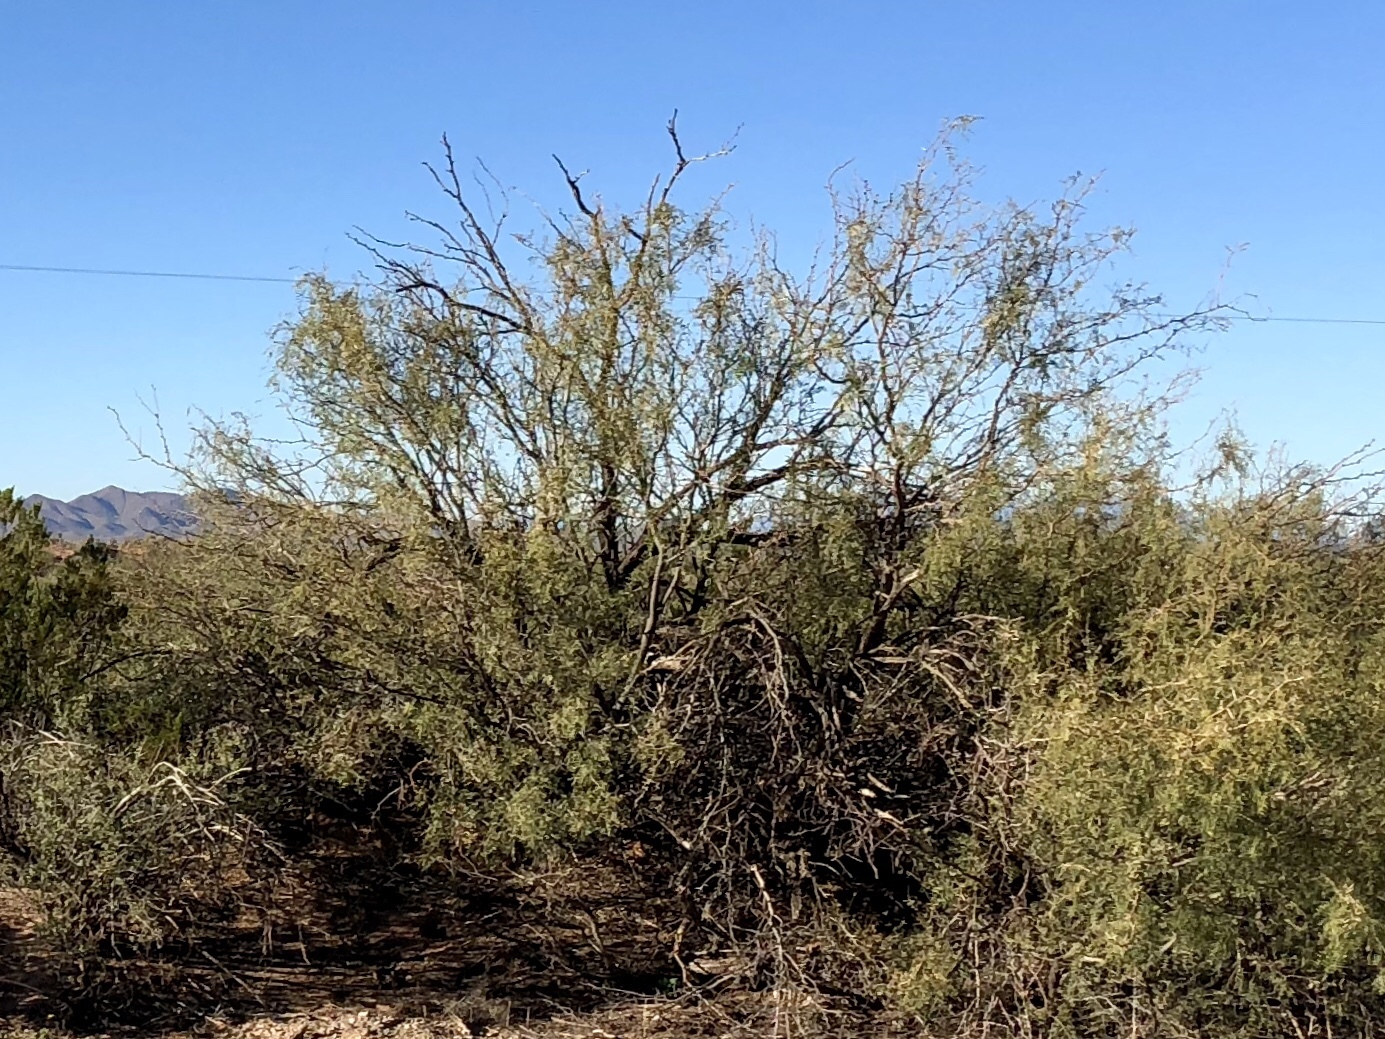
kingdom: Plantae
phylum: Tracheophyta
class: Magnoliopsida
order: Fabales
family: Fabaceae
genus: Prosopis
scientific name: Prosopis glandulosa
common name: Honey mesquite
